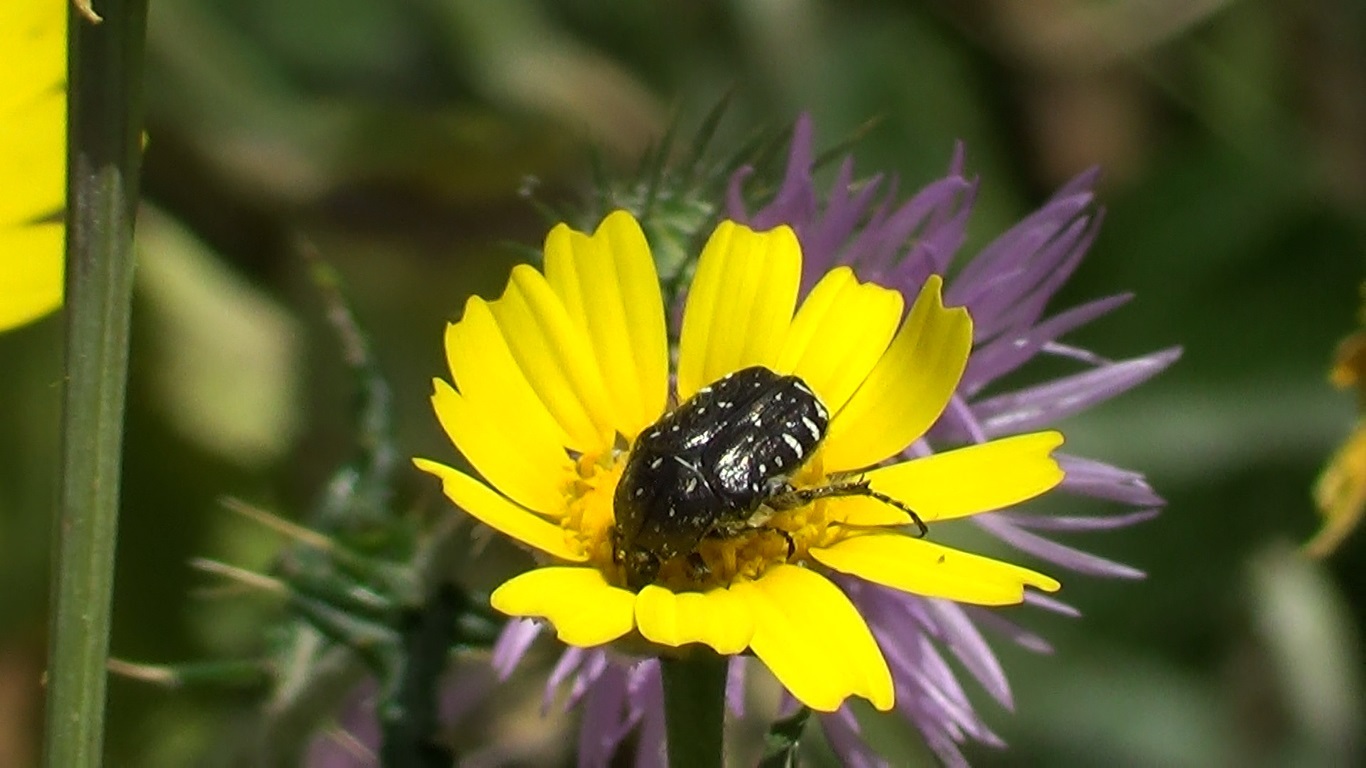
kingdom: Animalia
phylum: Arthropoda
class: Insecta
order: Coleoptera
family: Scarabaeidae
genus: Oxythyrea
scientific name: Oxythyrea funesta
